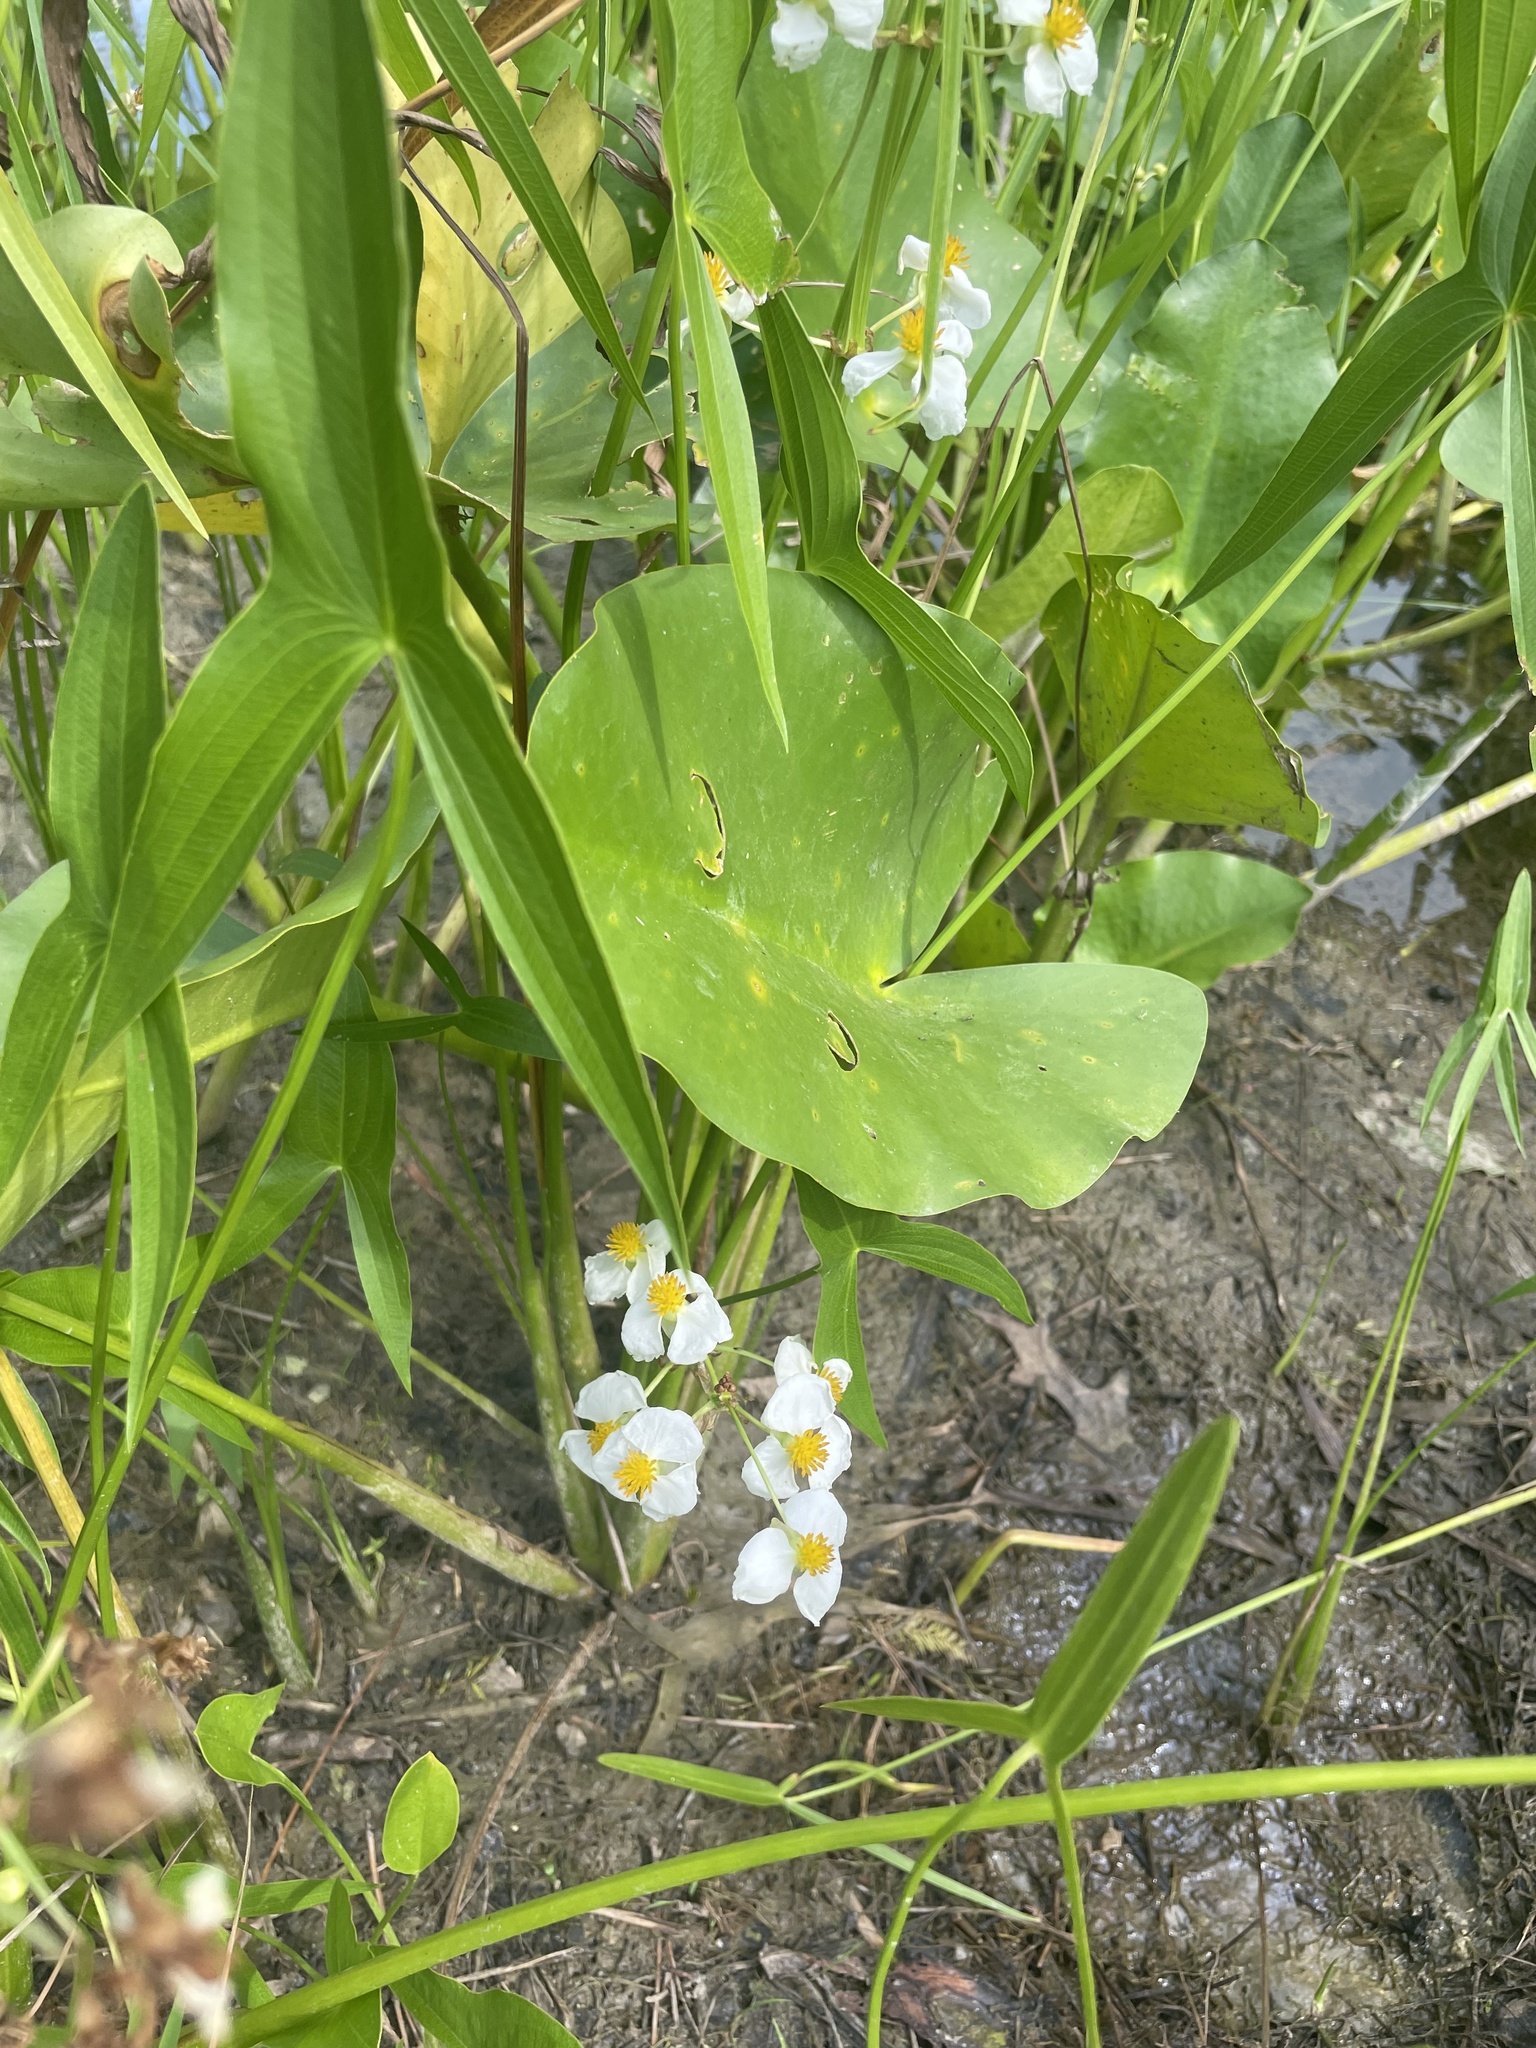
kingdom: Plantae
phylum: Tracheophyta
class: Liliopsida
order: Alismatales
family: Alismataceae
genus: Sagittaria
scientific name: Sagittaria latifolia
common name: Duck-potato
